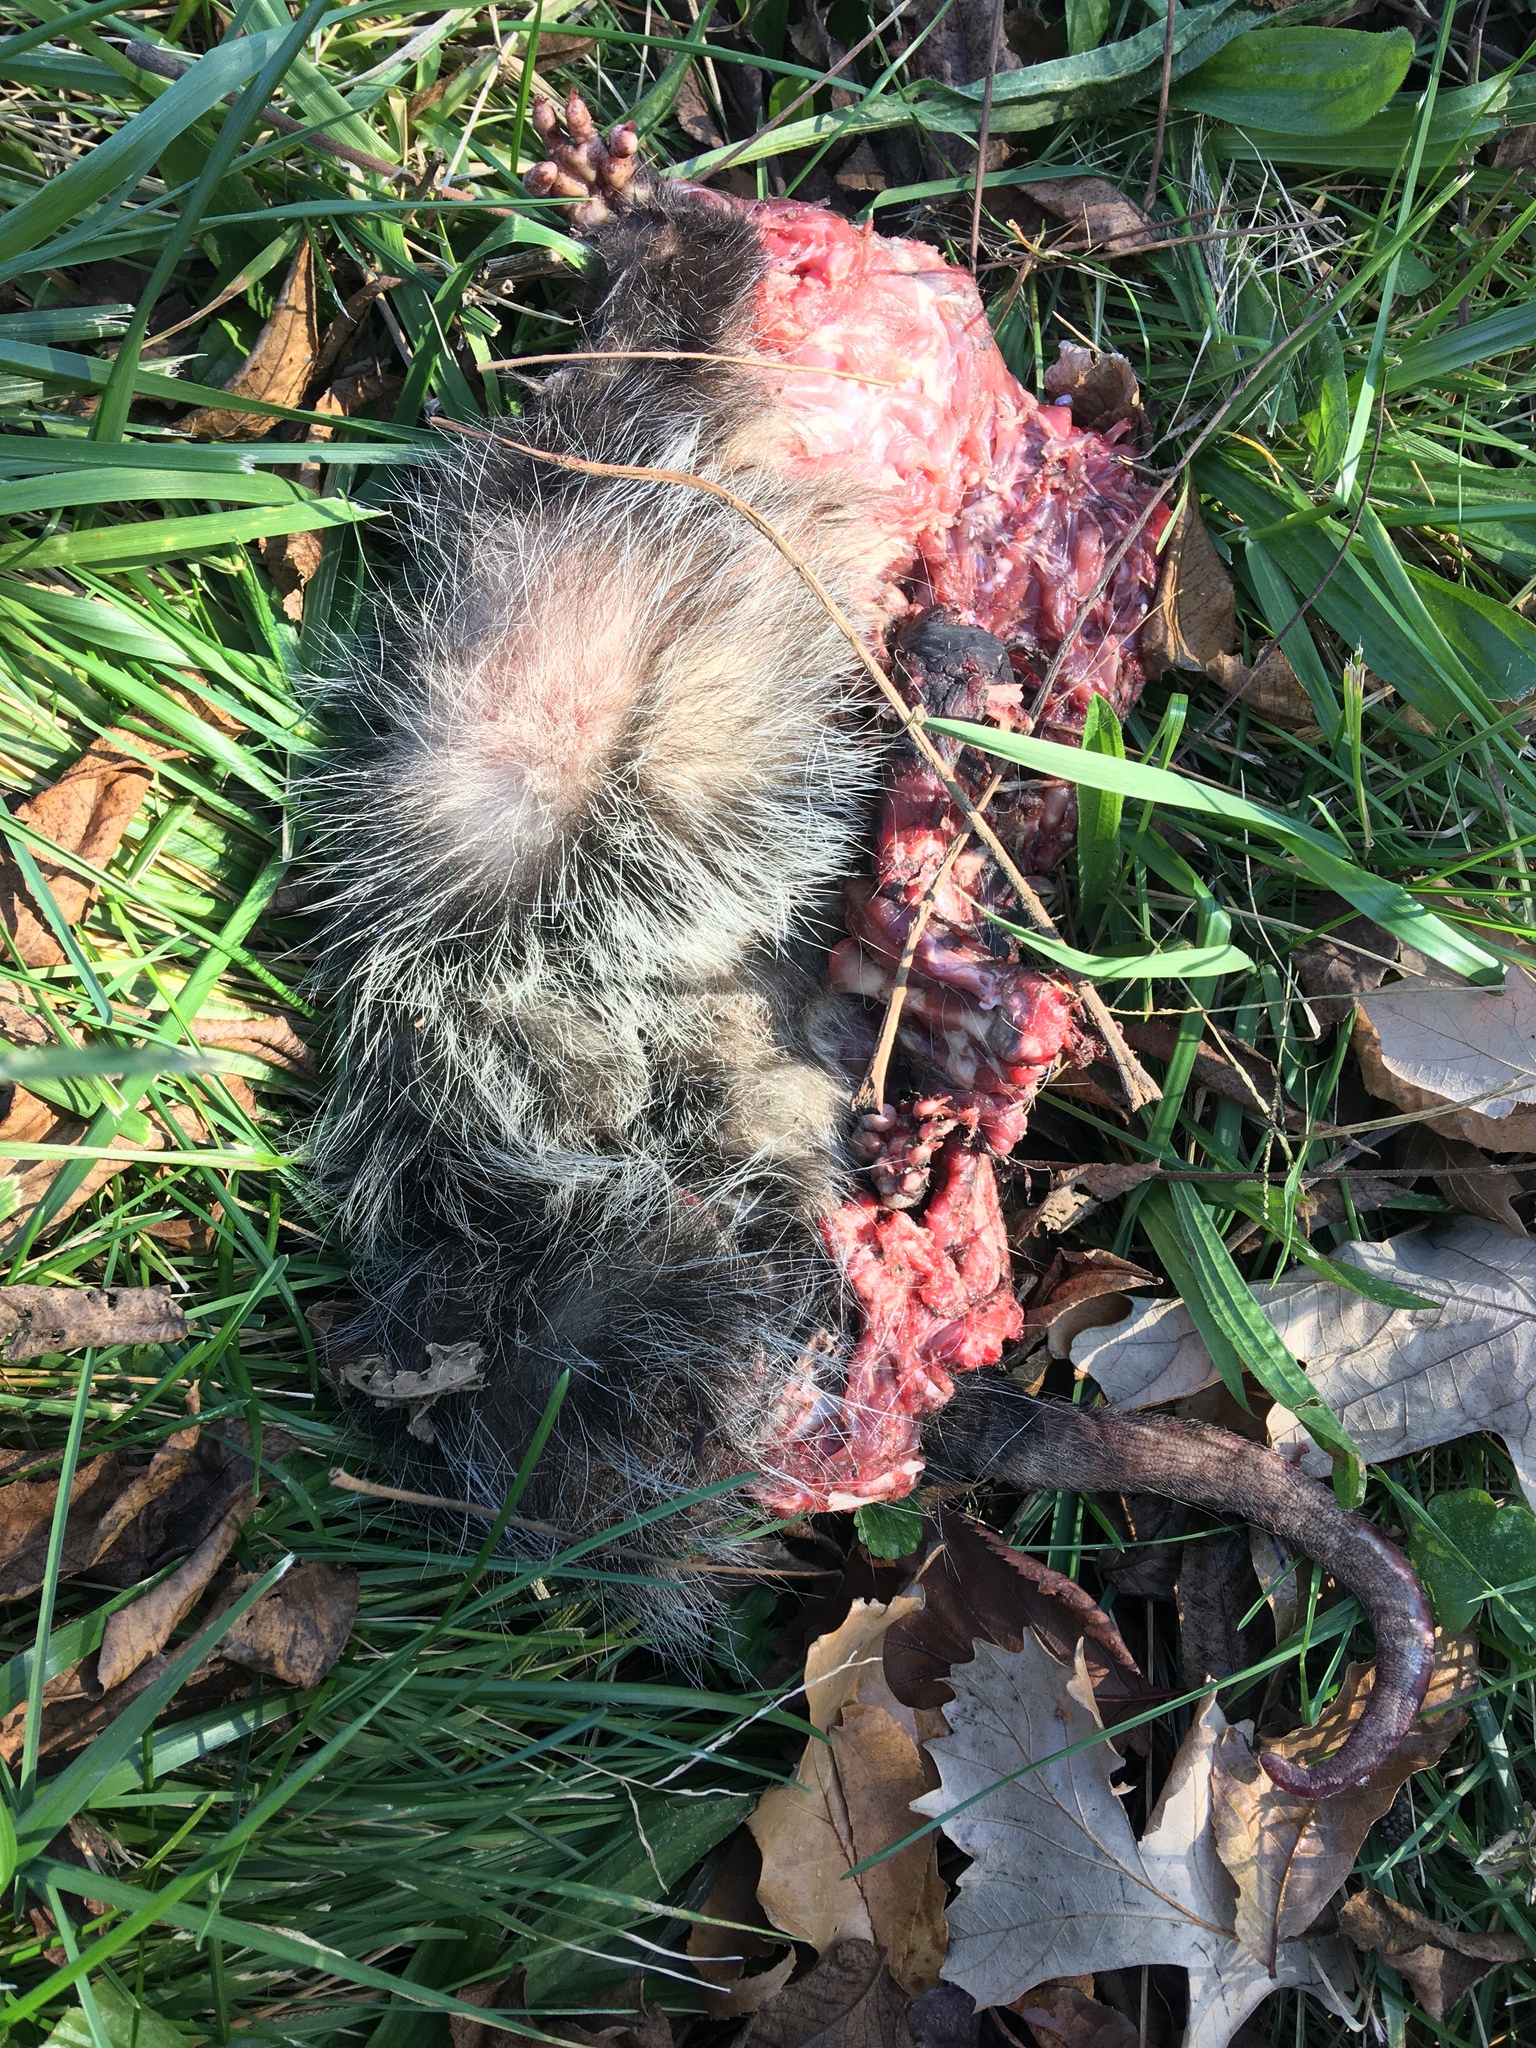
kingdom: Animalia
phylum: Chordata
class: Mammalia
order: Didelphimorphia
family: Didelphidae
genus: Didelphis
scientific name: Didelphis virginiana
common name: Virginia opossum
